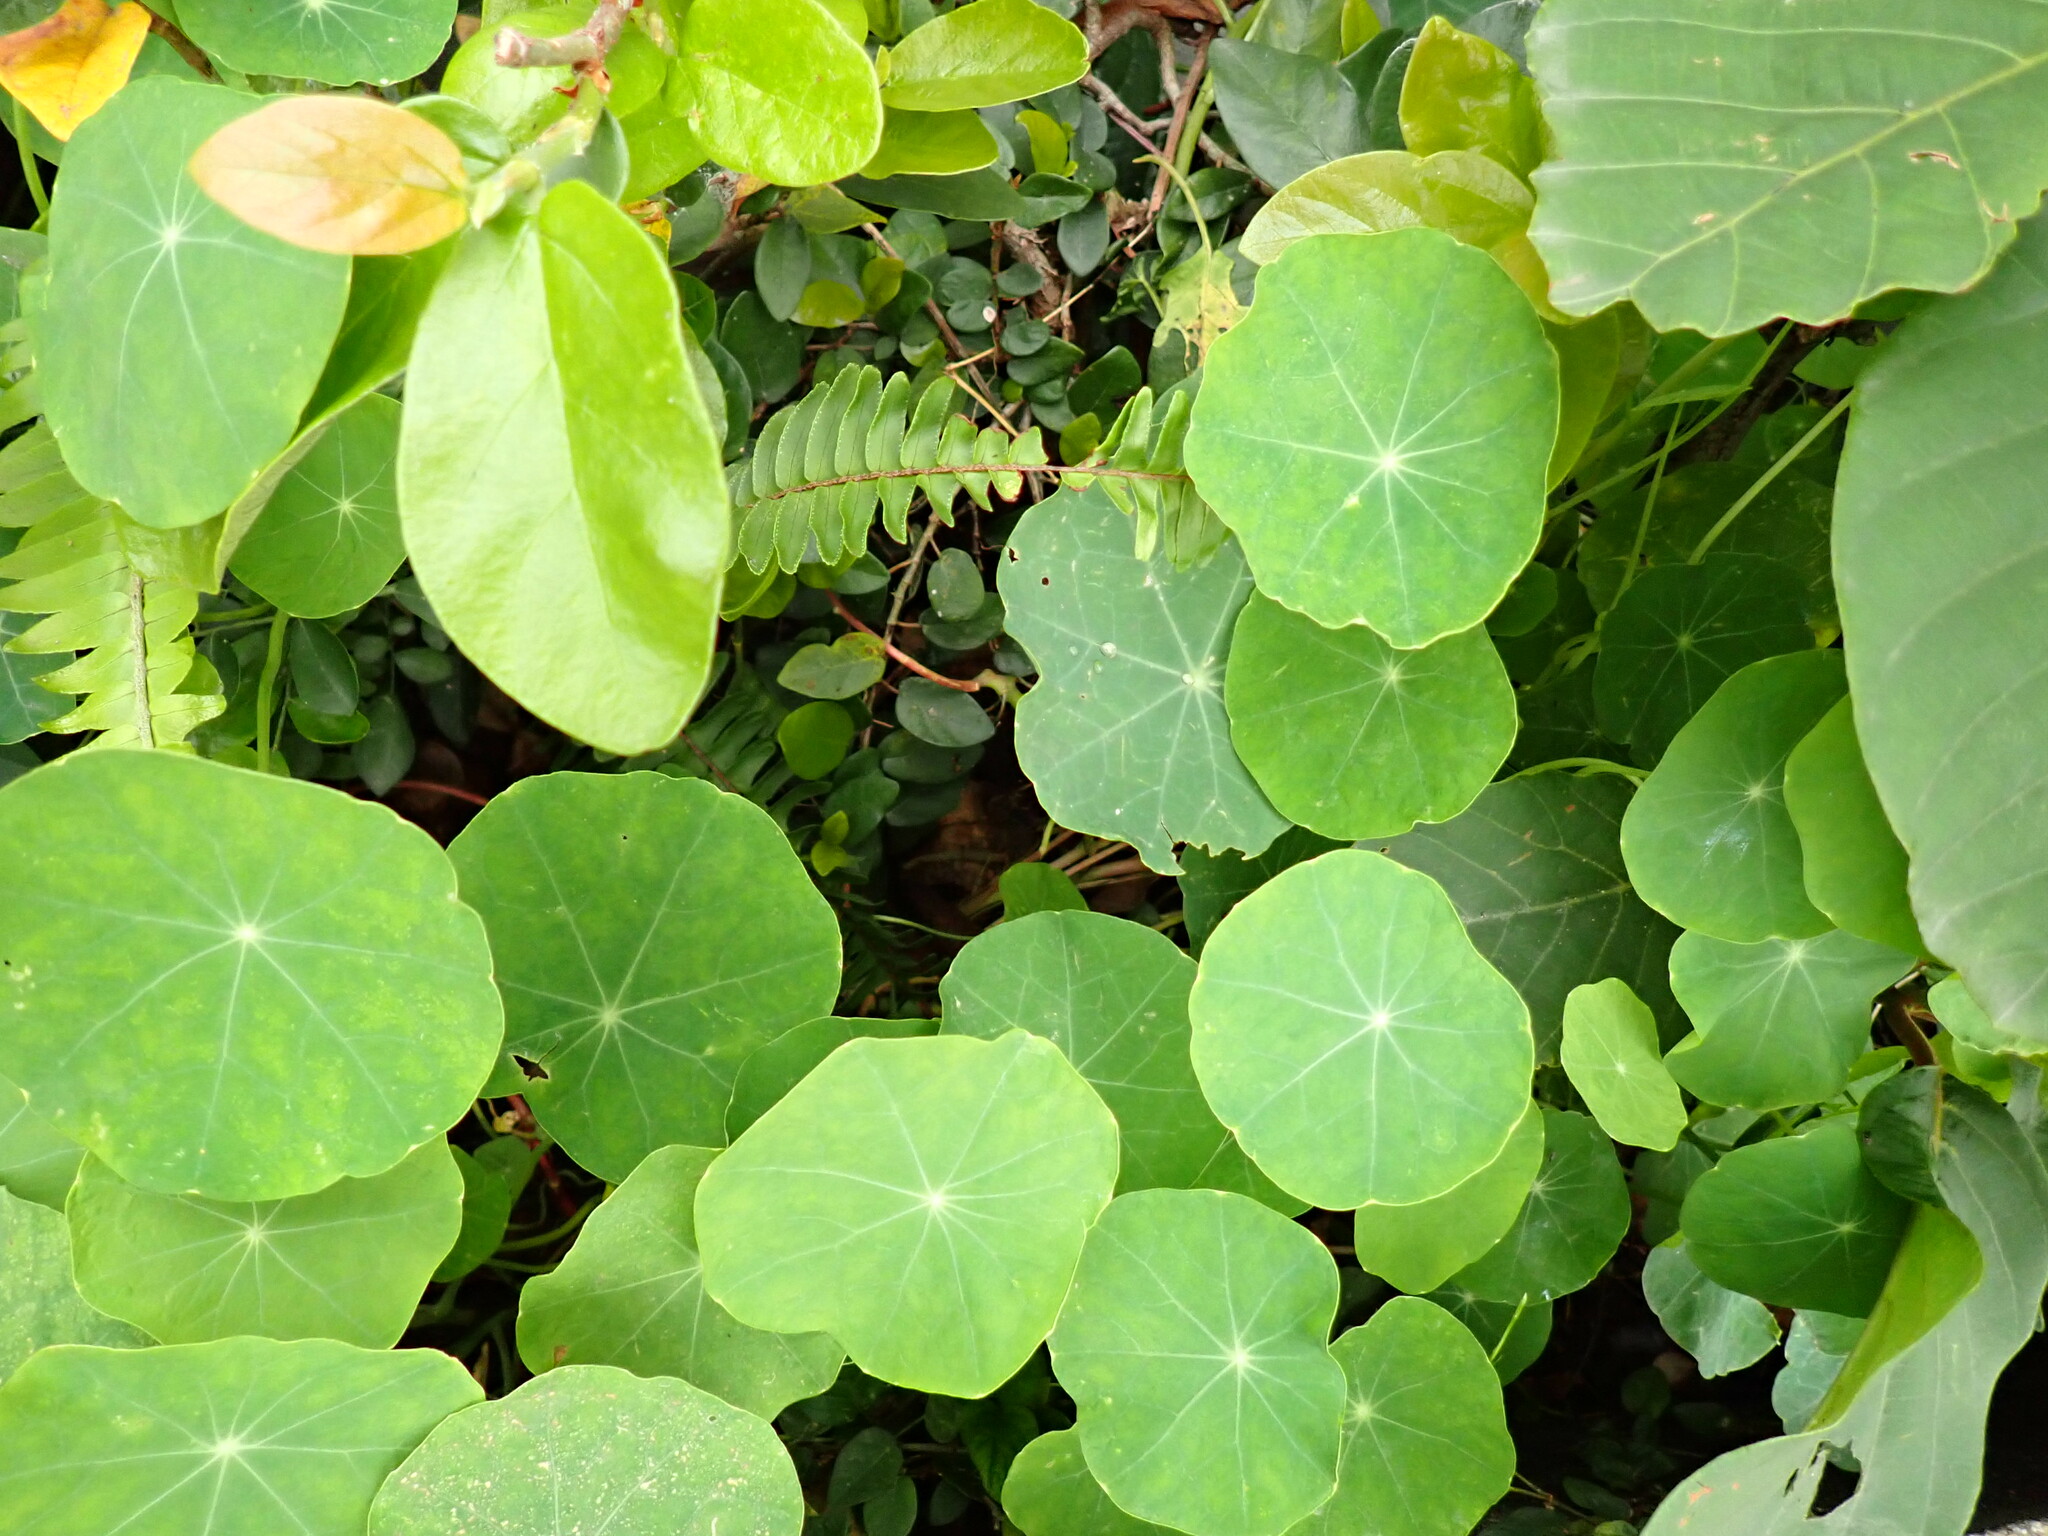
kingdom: Plantae
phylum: Tracheophyta
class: Magnoliopsida
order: Brassicales
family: Tropaeolaceae
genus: Tropaeolum
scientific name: Tropaeolum majus
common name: Nasturtium
